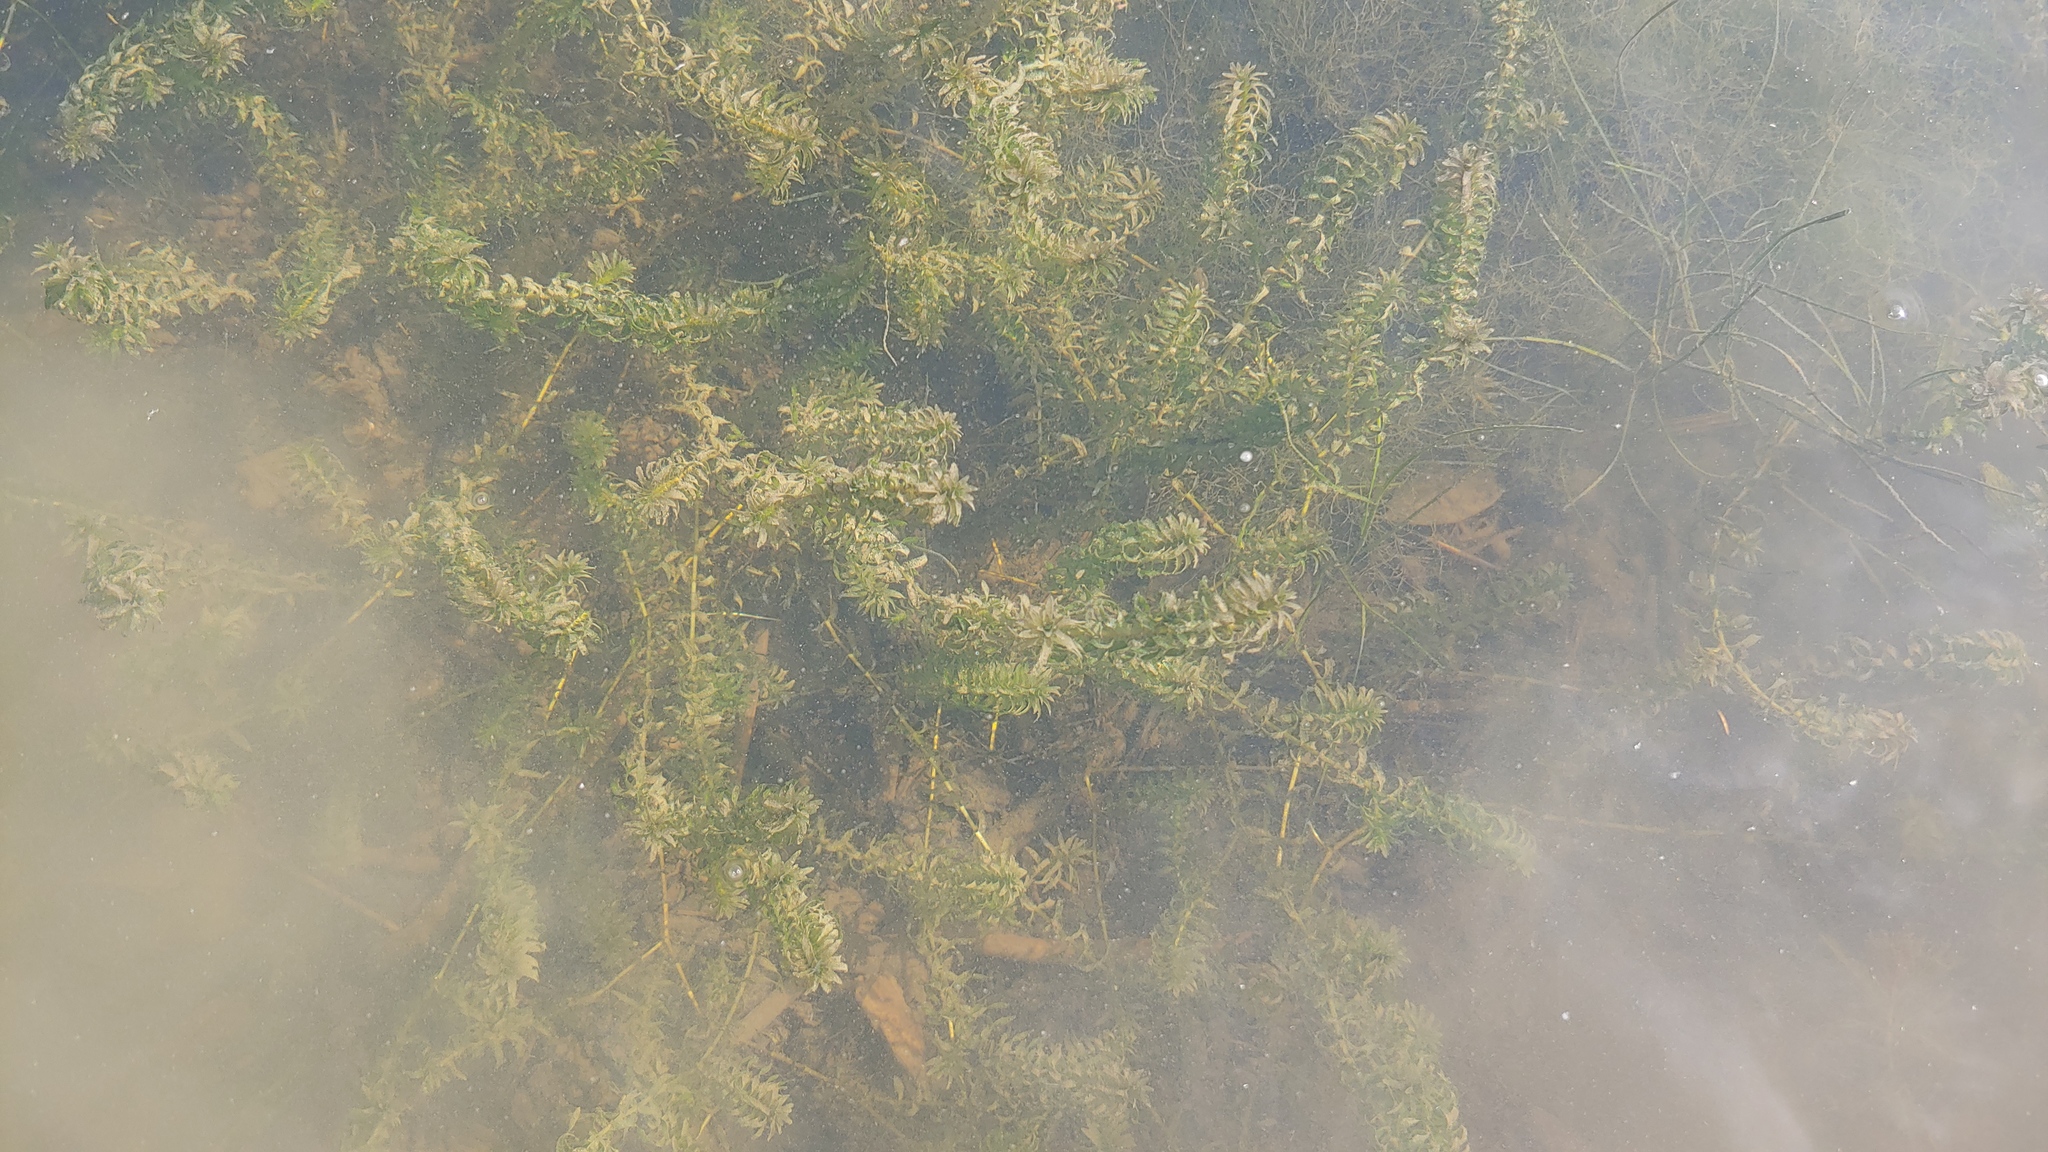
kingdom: Plantae
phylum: Tracheophyta
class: Liliopsida
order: Alismatales
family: Hydrocharitaceae
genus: Elodea
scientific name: Elodea canadensis
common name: Canadian waterweed
